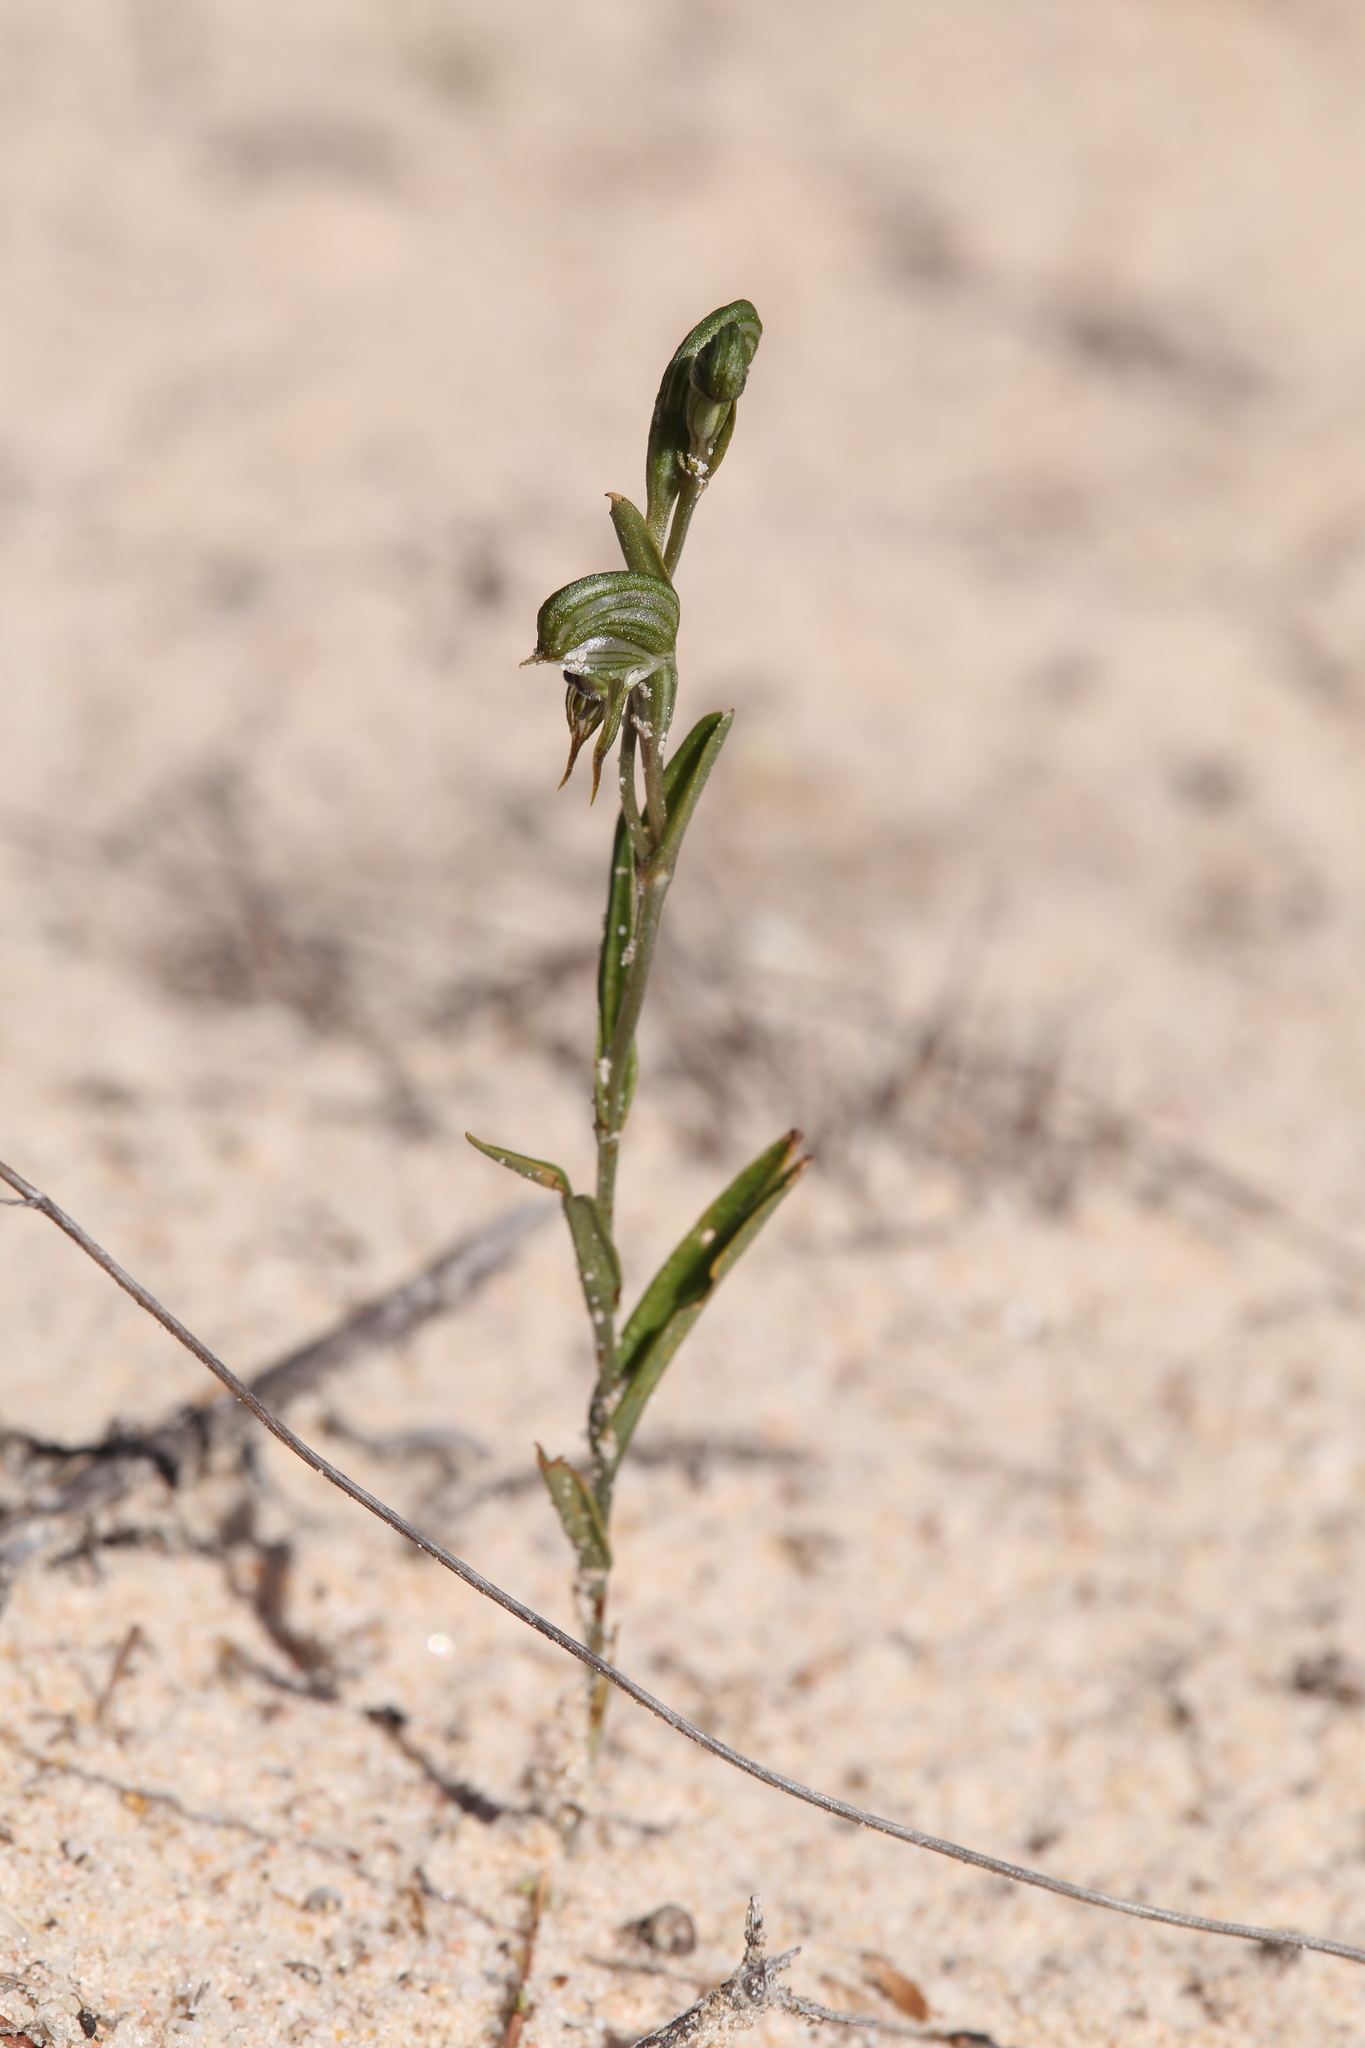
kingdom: Plantae
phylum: Tracheophyta
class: Liliopsida
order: Asparagales
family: Orchidaceae
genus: Pterostylis
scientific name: Pterostylis
